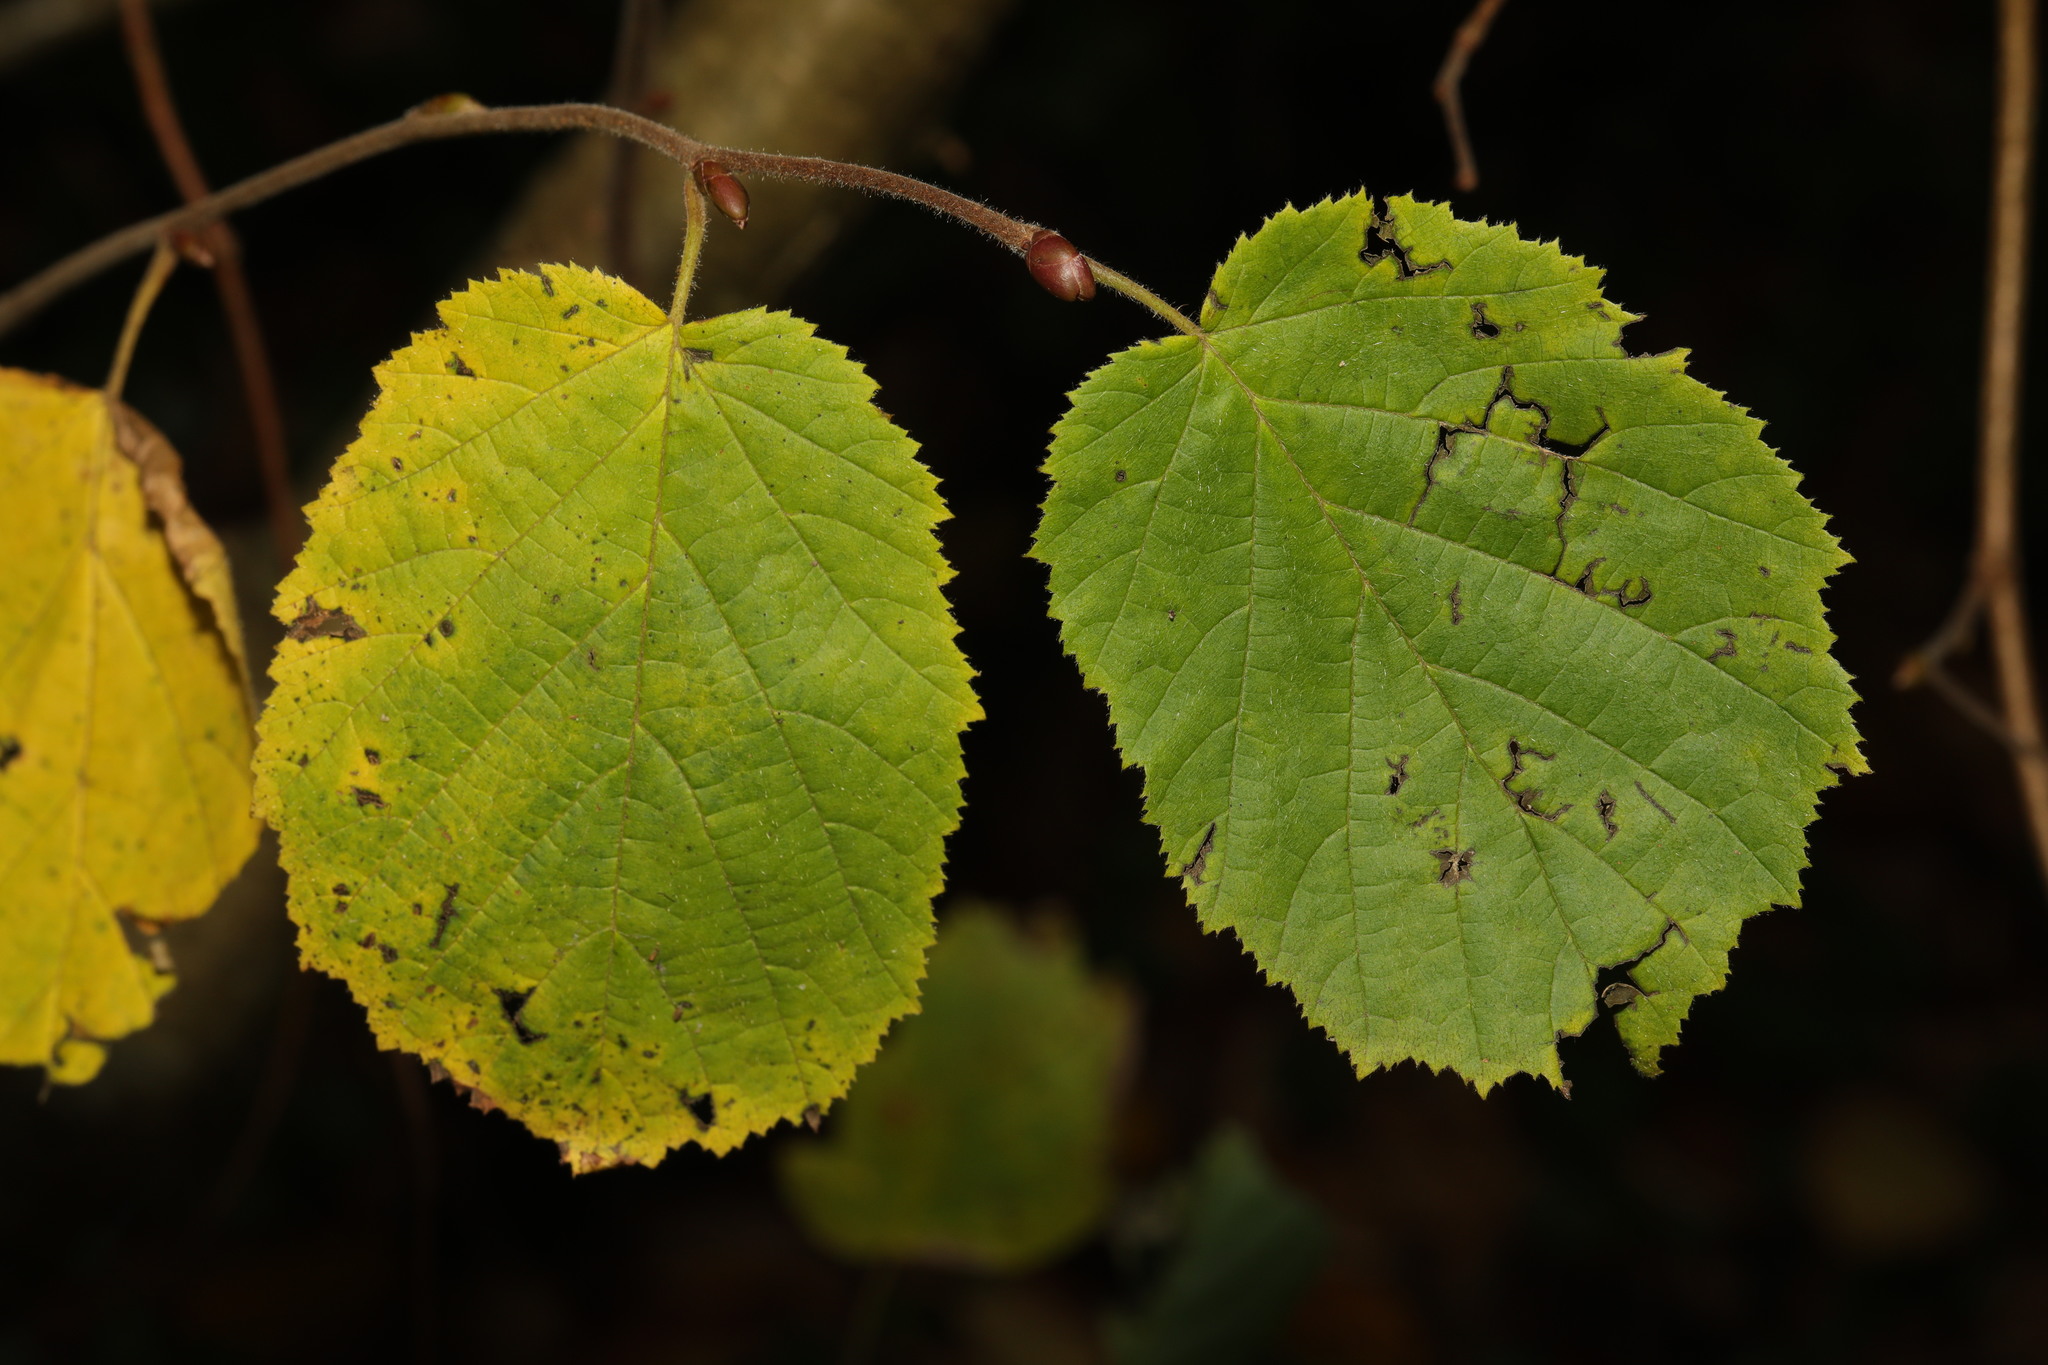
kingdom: Plantae
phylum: Tracheophyta
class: Magnoliopsida
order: Fagales
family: Betulaceae
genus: Corylus
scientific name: Corylus avellana
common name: European hazel
